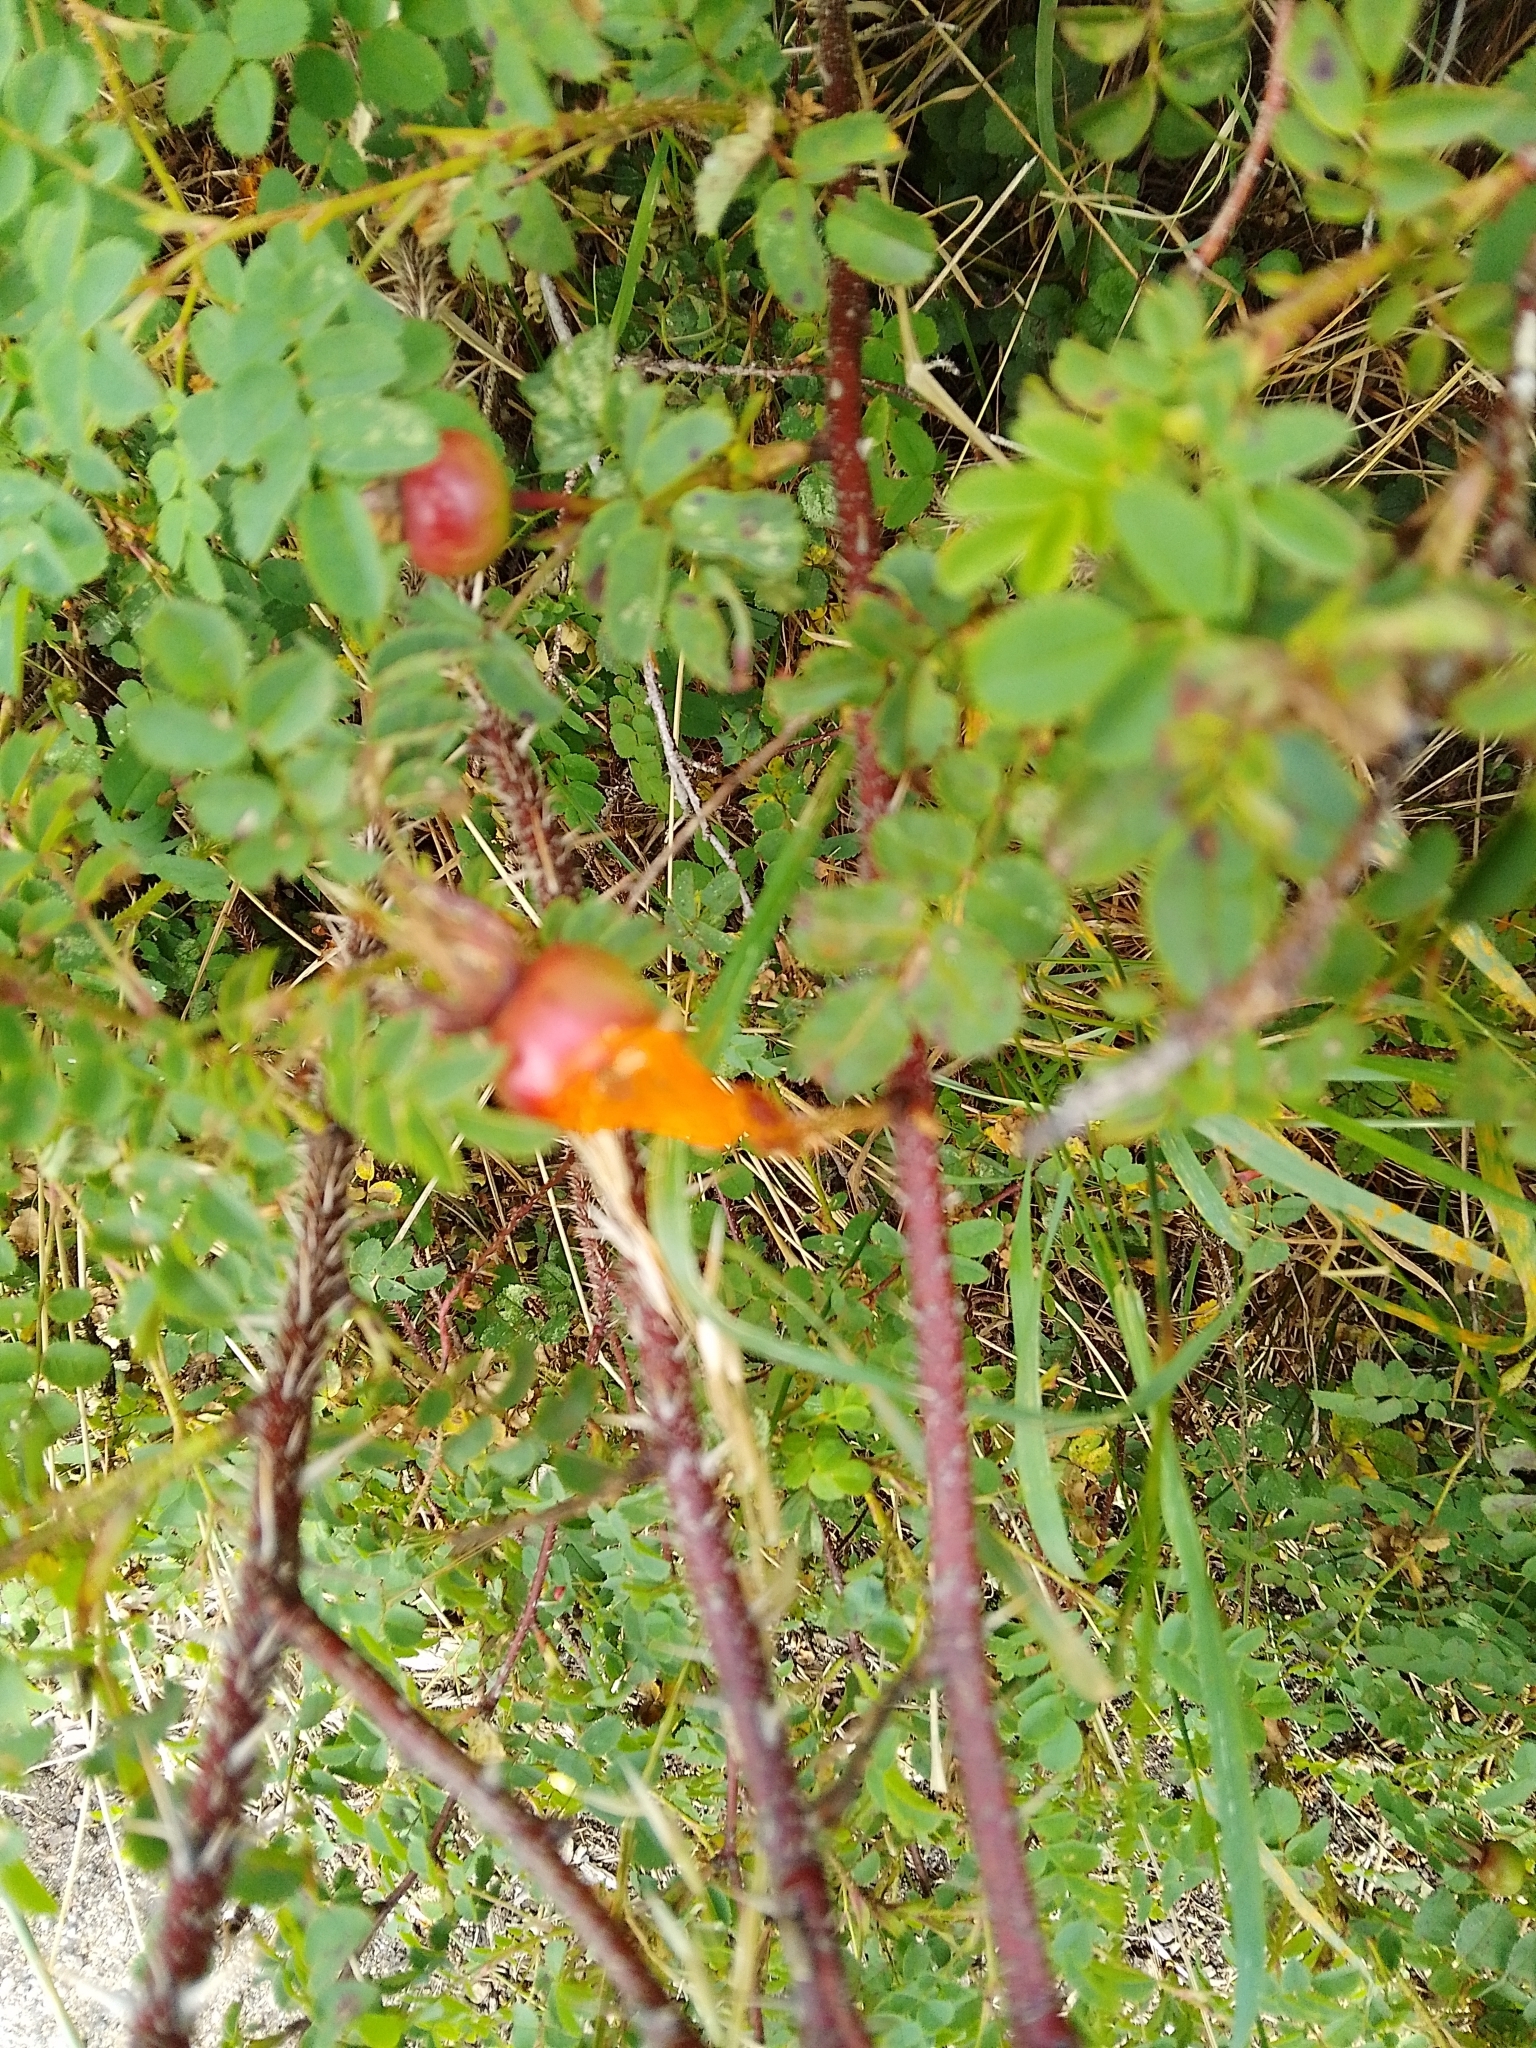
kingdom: Animalia
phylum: Arthropoda
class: Insecta
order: Diptera
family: Cecidomyiidae
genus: Janetiella
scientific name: Janetiella frankumi
